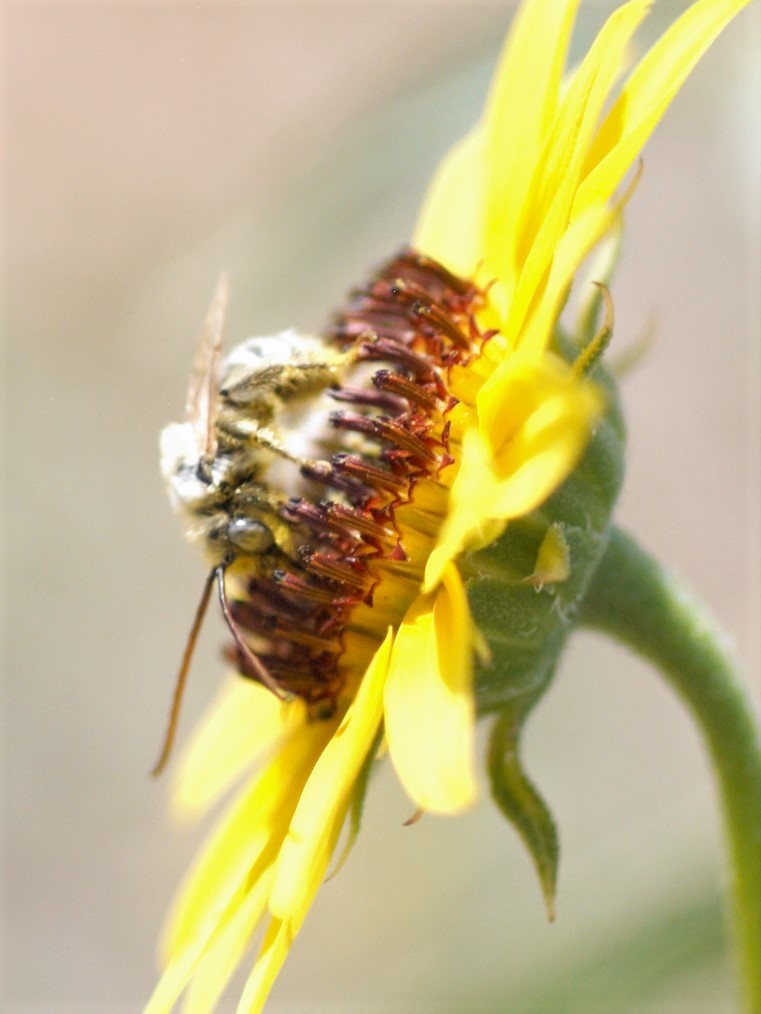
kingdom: Animalia
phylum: Arthropoda
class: Insecta
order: Hymenoptera
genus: Eumelissodes
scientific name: Eumelissodes
